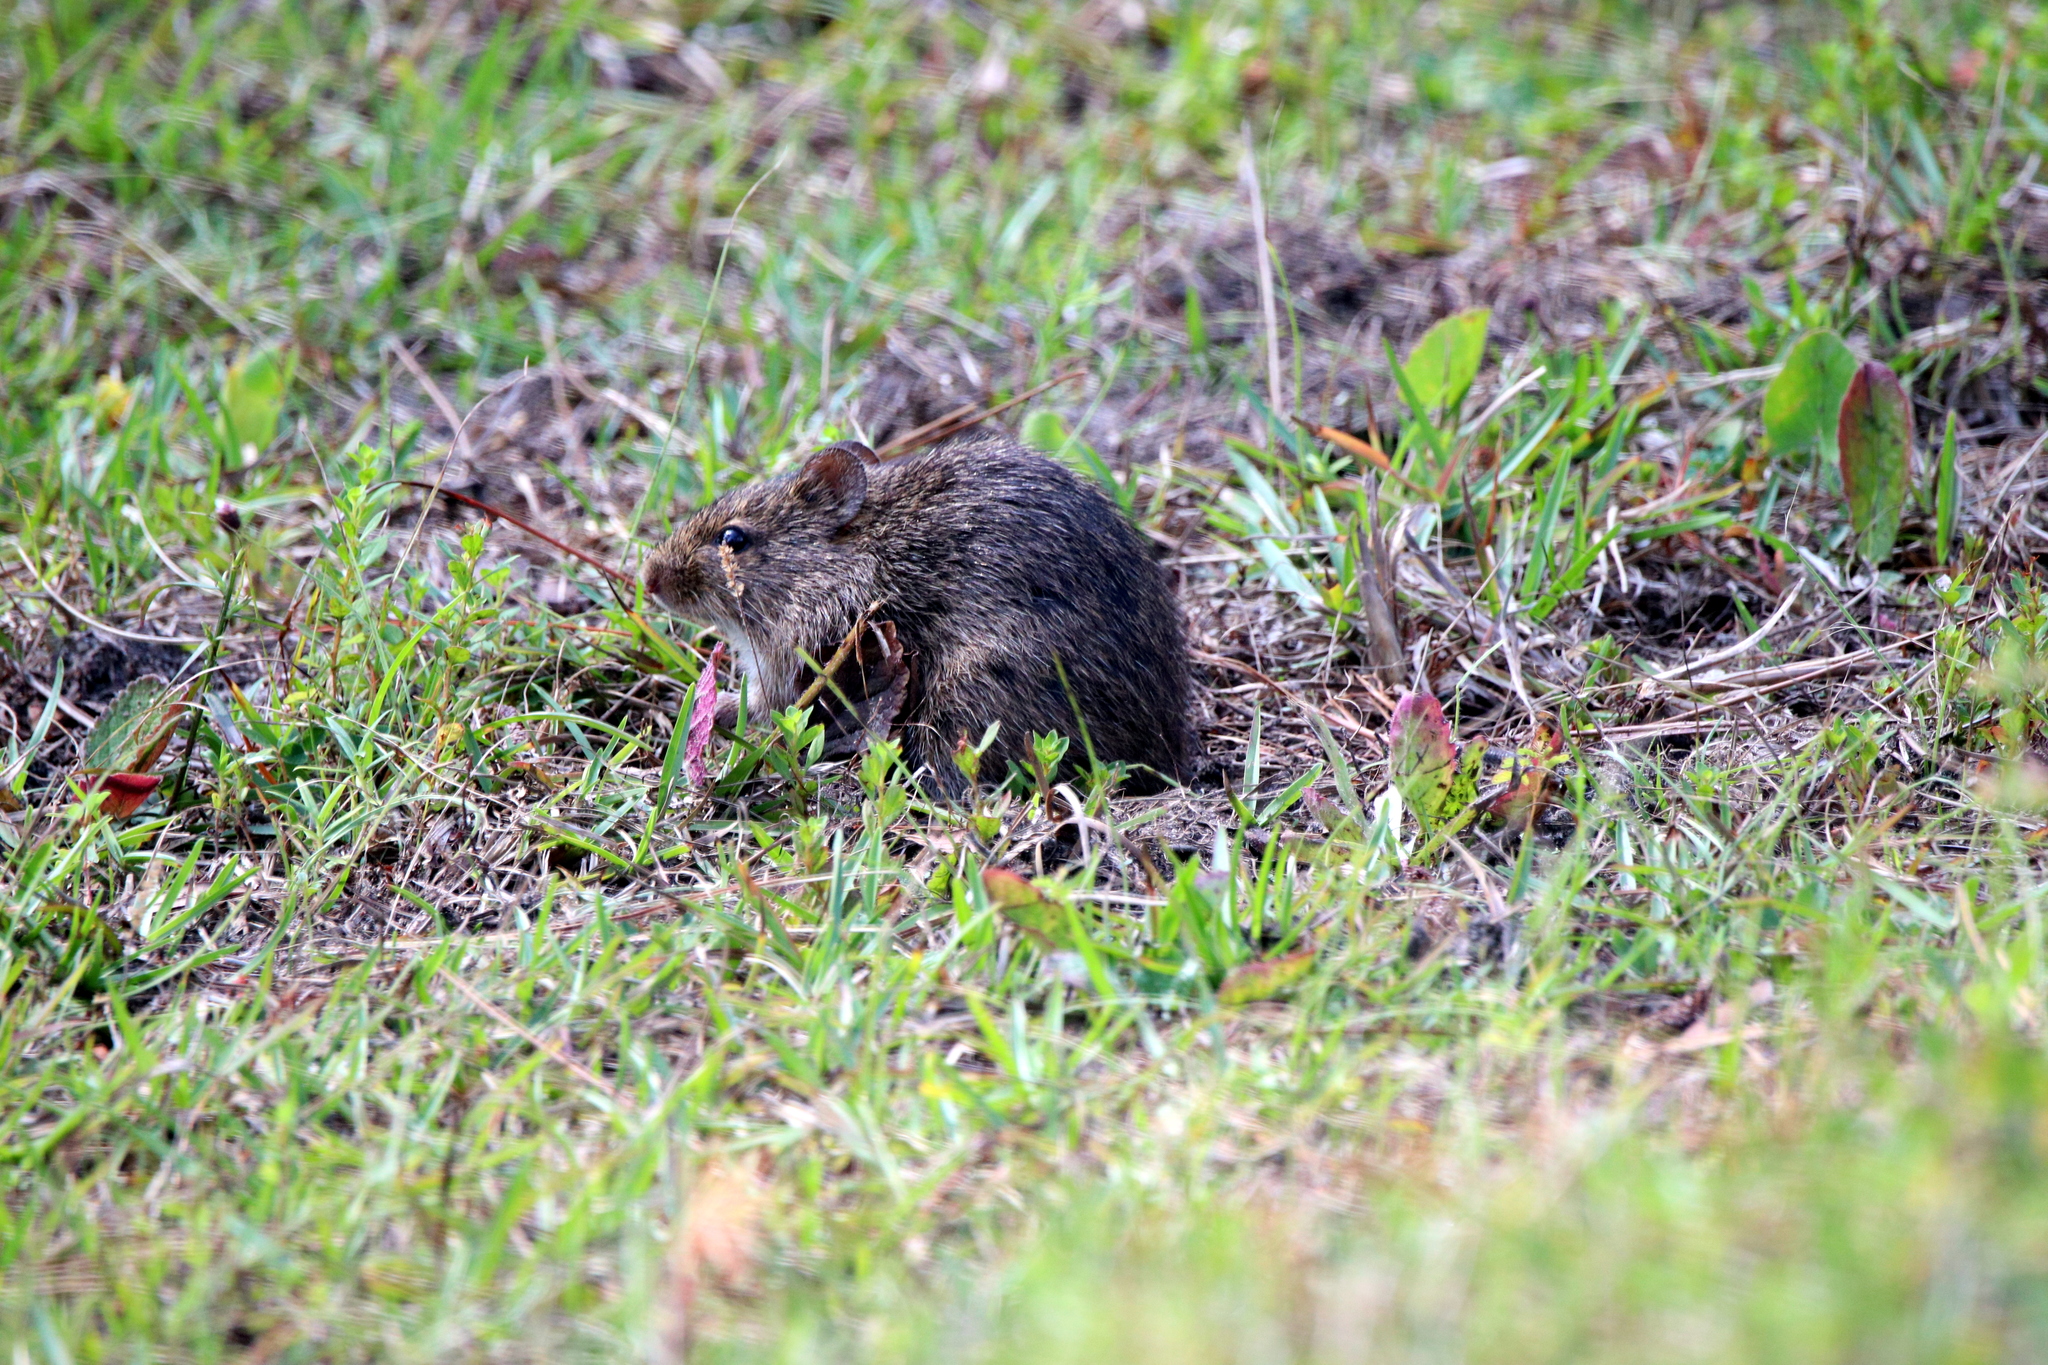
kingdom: Animalia
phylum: Chordata
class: Mammalia
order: Rodentia
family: Cricetidae
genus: Sigmodon
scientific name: Sigmodon hispidus
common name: Hispid cotton rat
